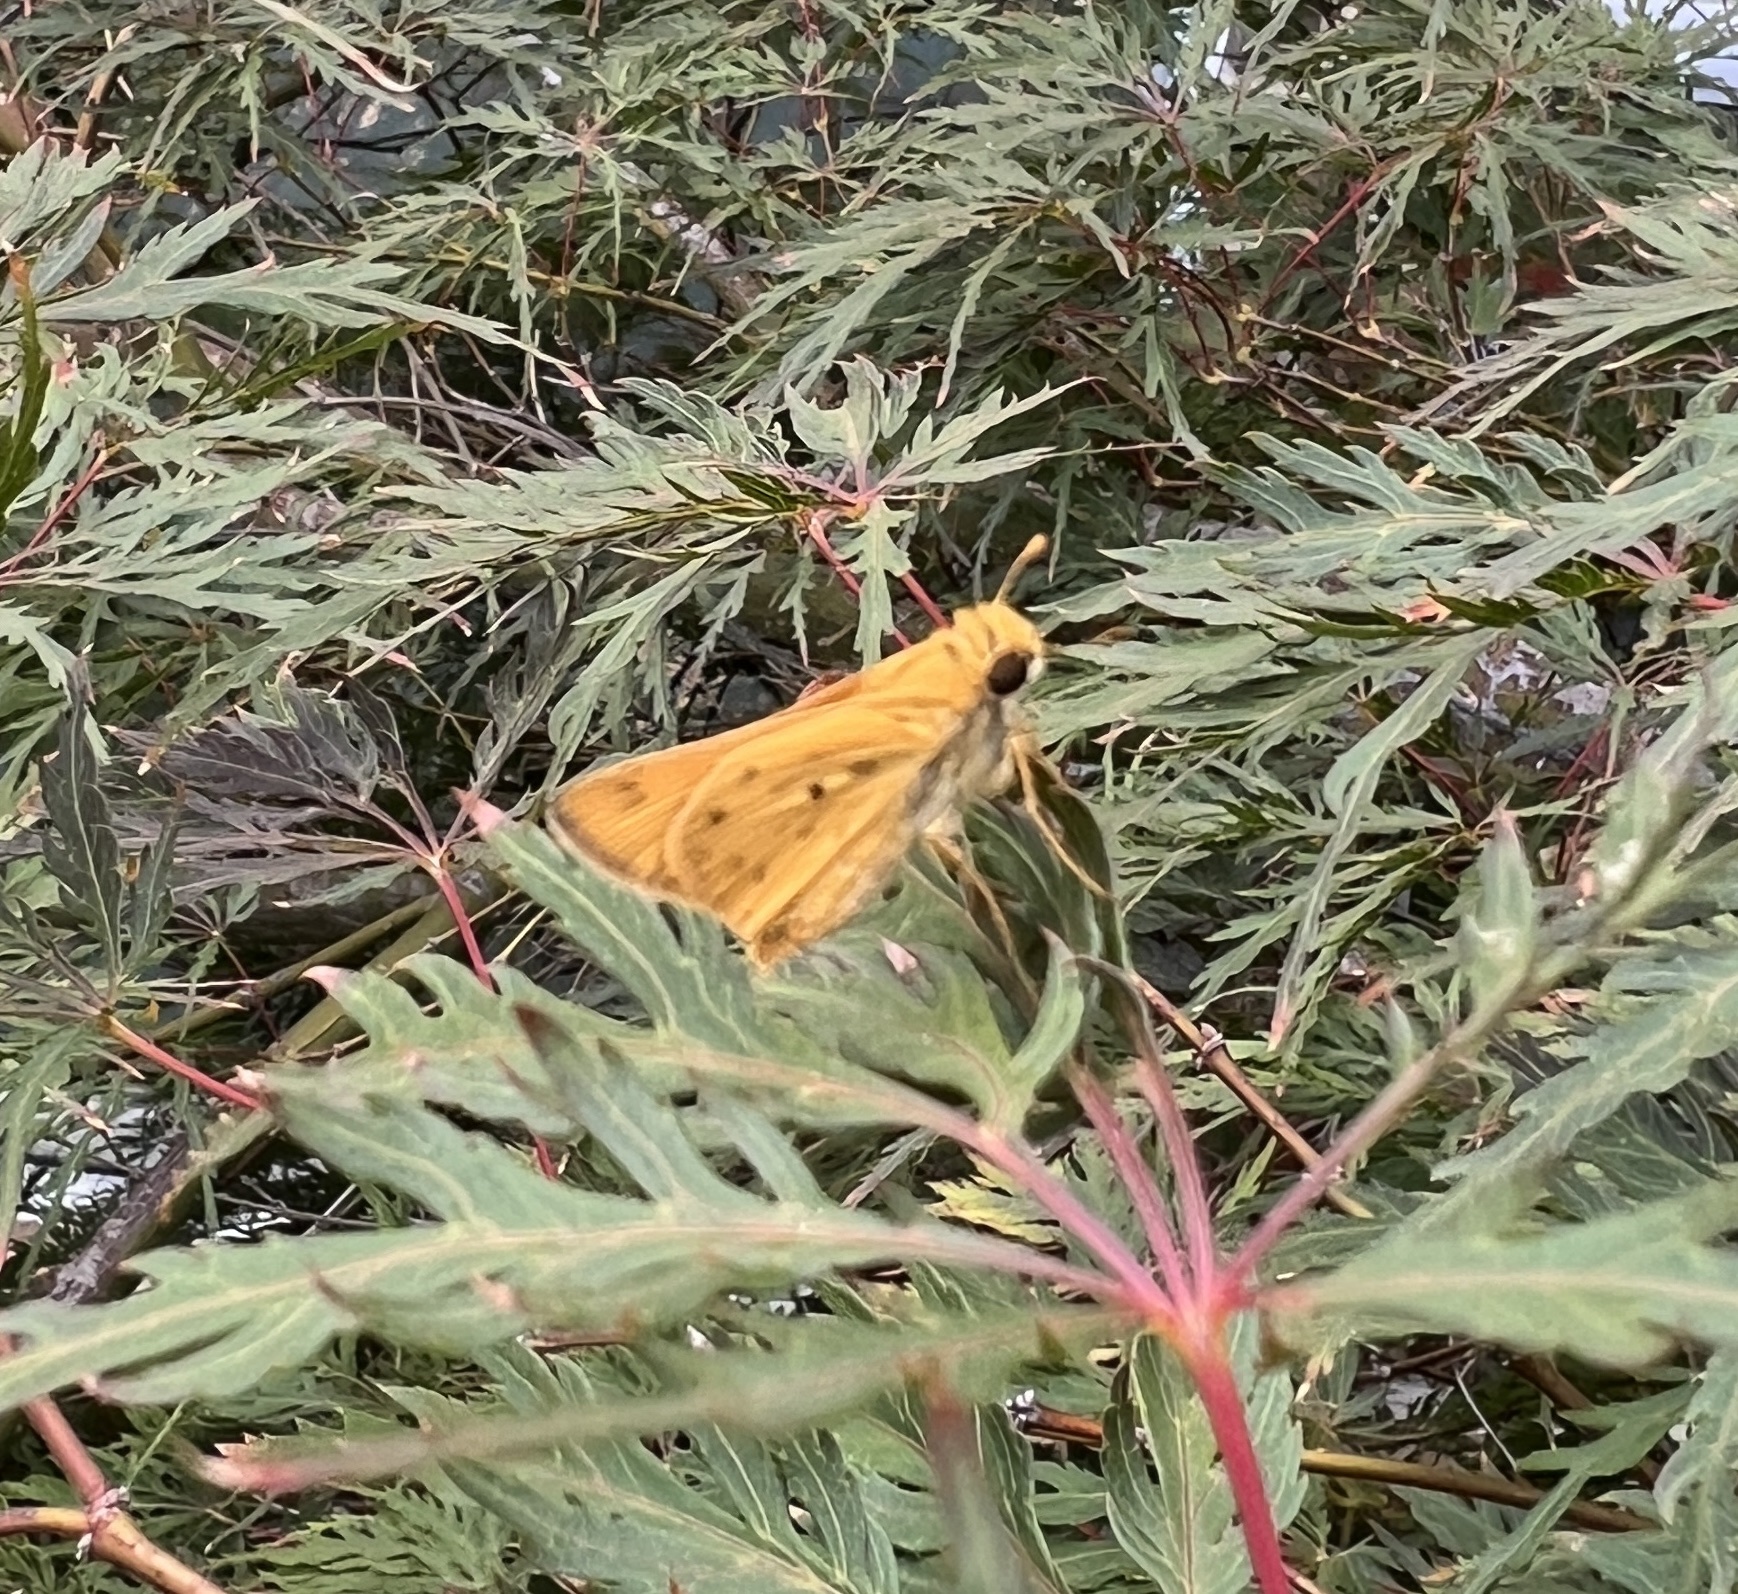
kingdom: Animalia
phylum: Arthropoda
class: Insecta
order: Lepidoptera
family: Hesperiidae
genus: Hylephila
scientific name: Hylephila phyleus
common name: Fiery skipper
